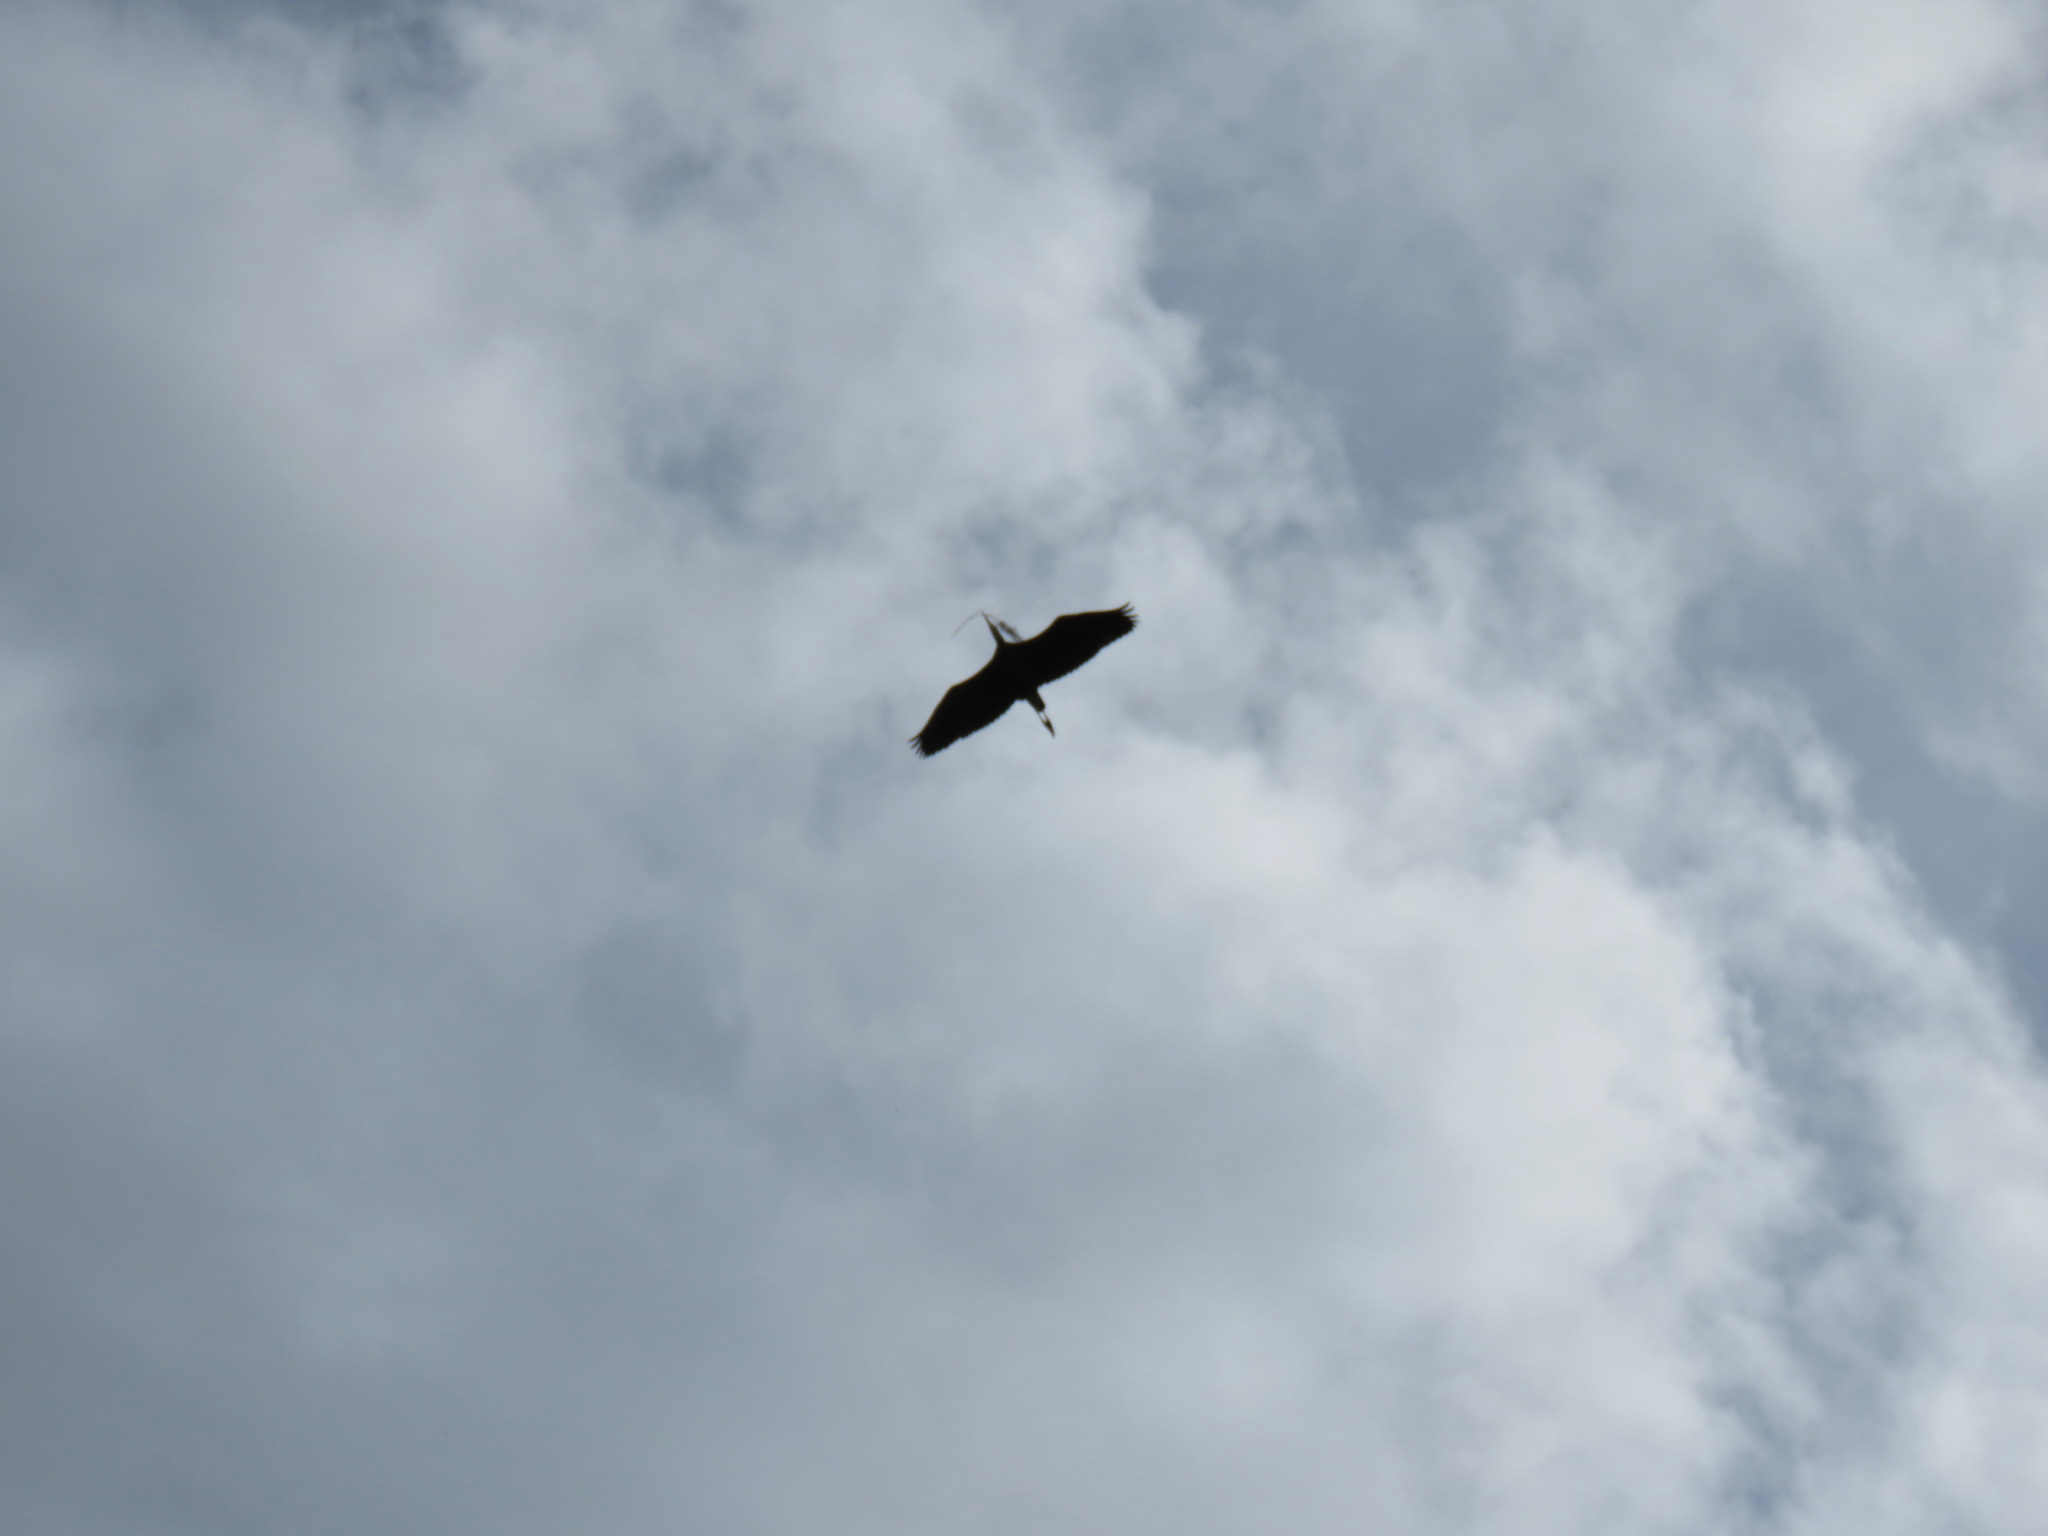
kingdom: Animalia
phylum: Chordata
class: Aves
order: Pelecaniformes
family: Ardeidae
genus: Ardea
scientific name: Ardea herodias
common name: Great blue heron
